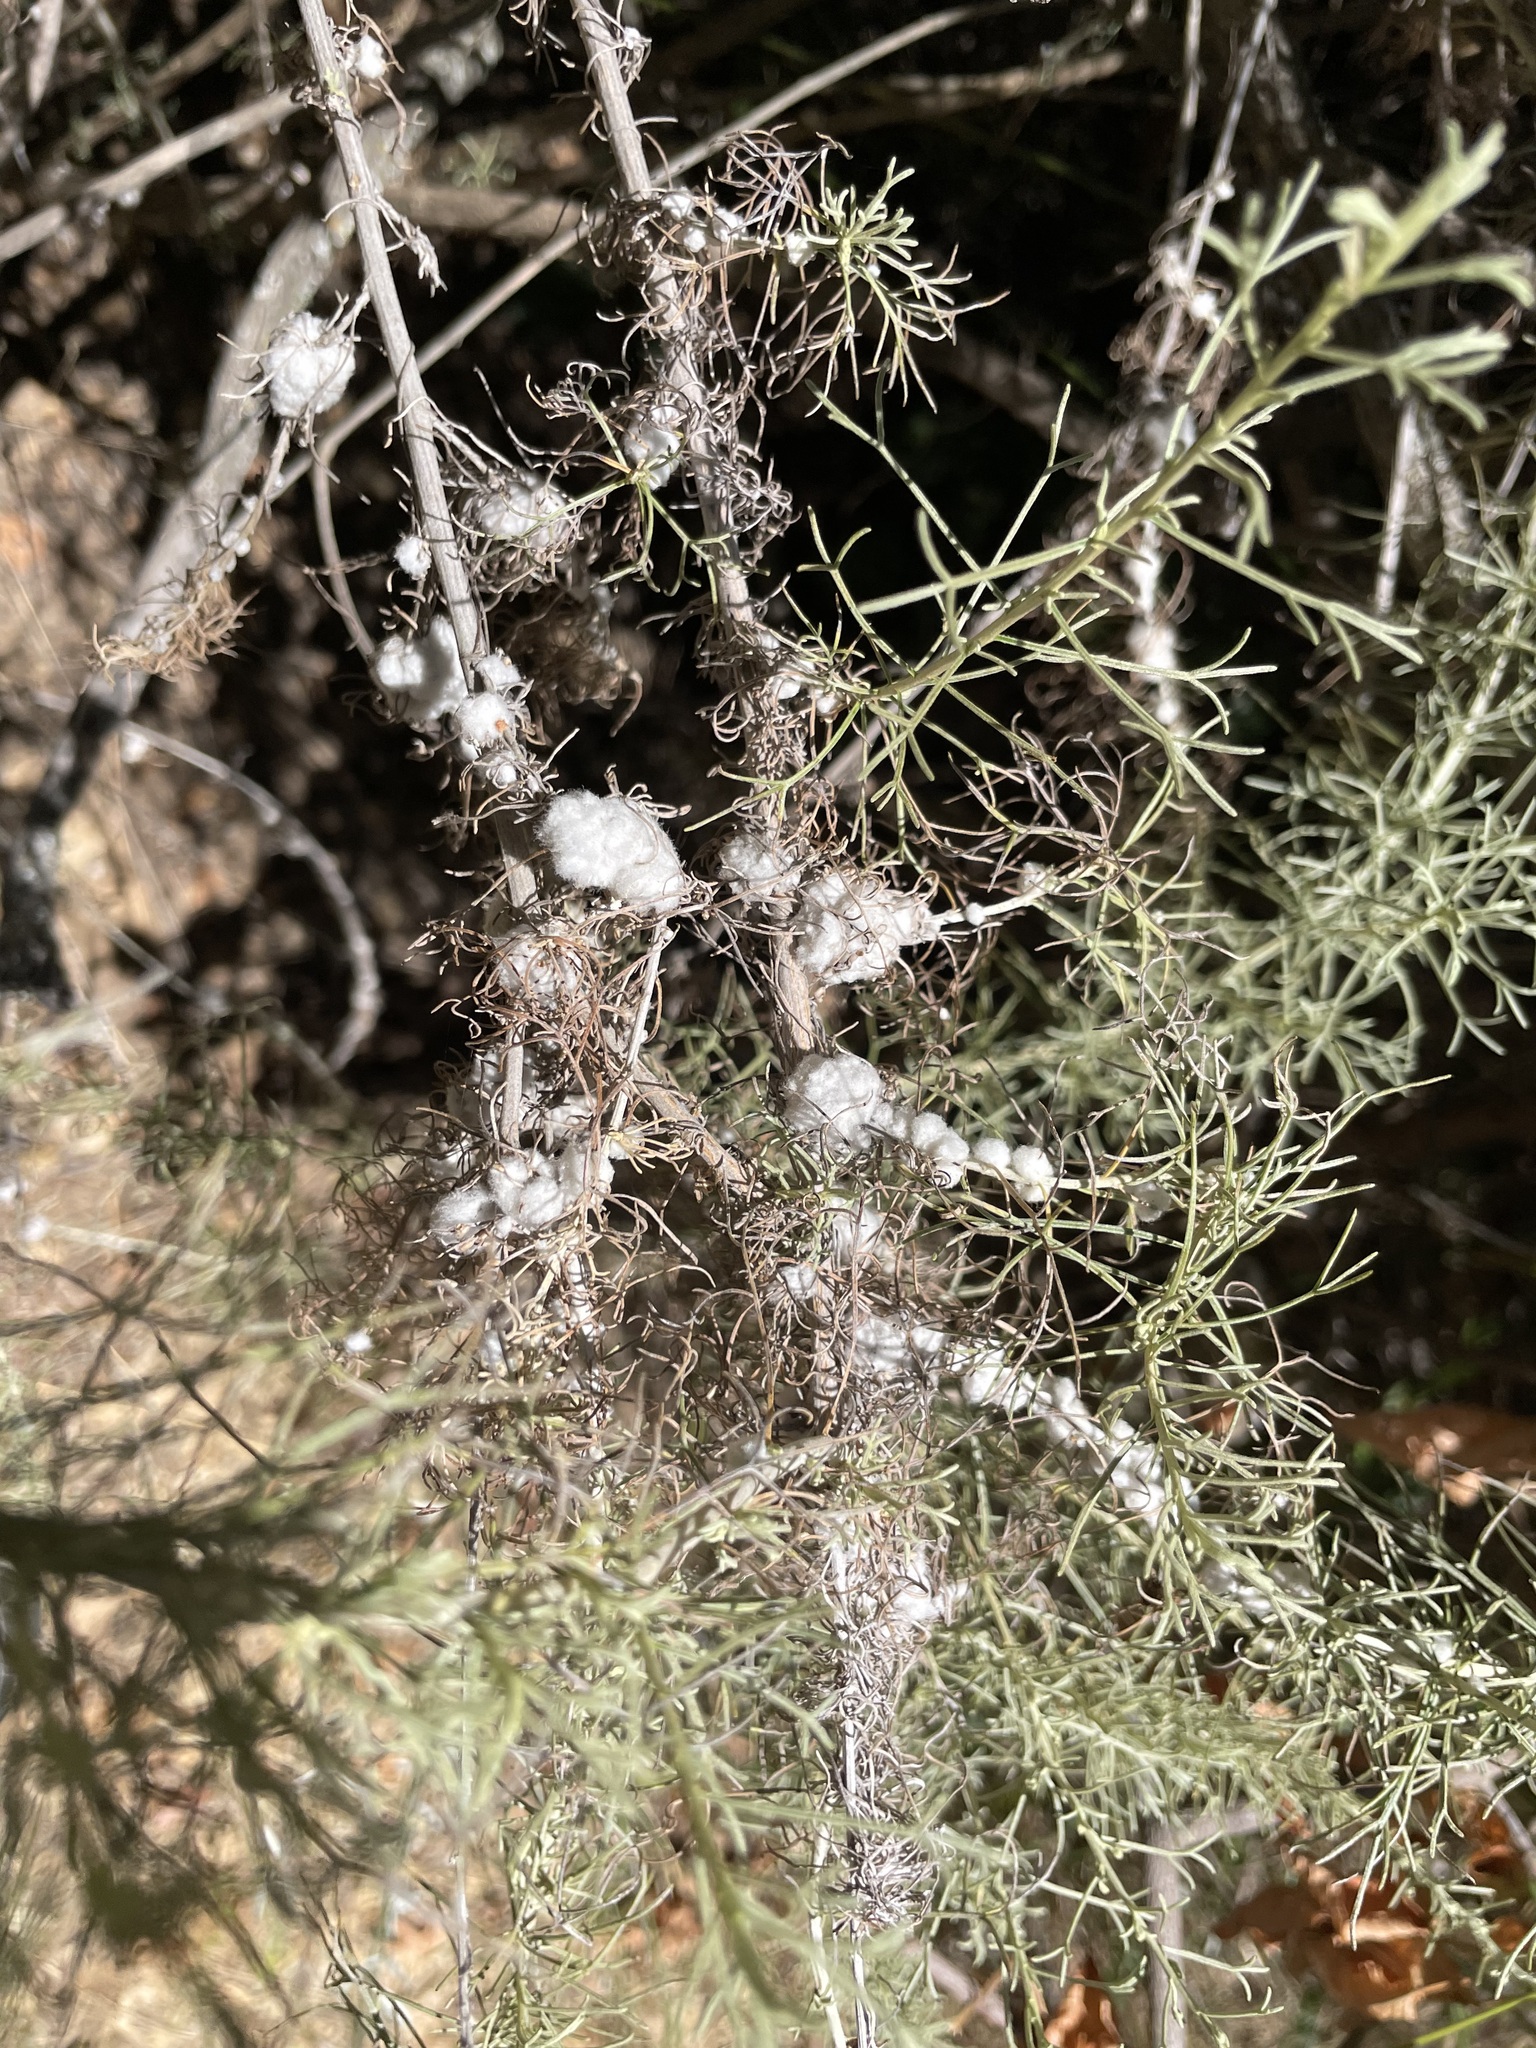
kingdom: Animalia
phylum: Arthropoda
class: Insecta
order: Diptera
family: Cecidomyiidae
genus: Rhopalomyia
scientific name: Rhopalomyia floccosa
